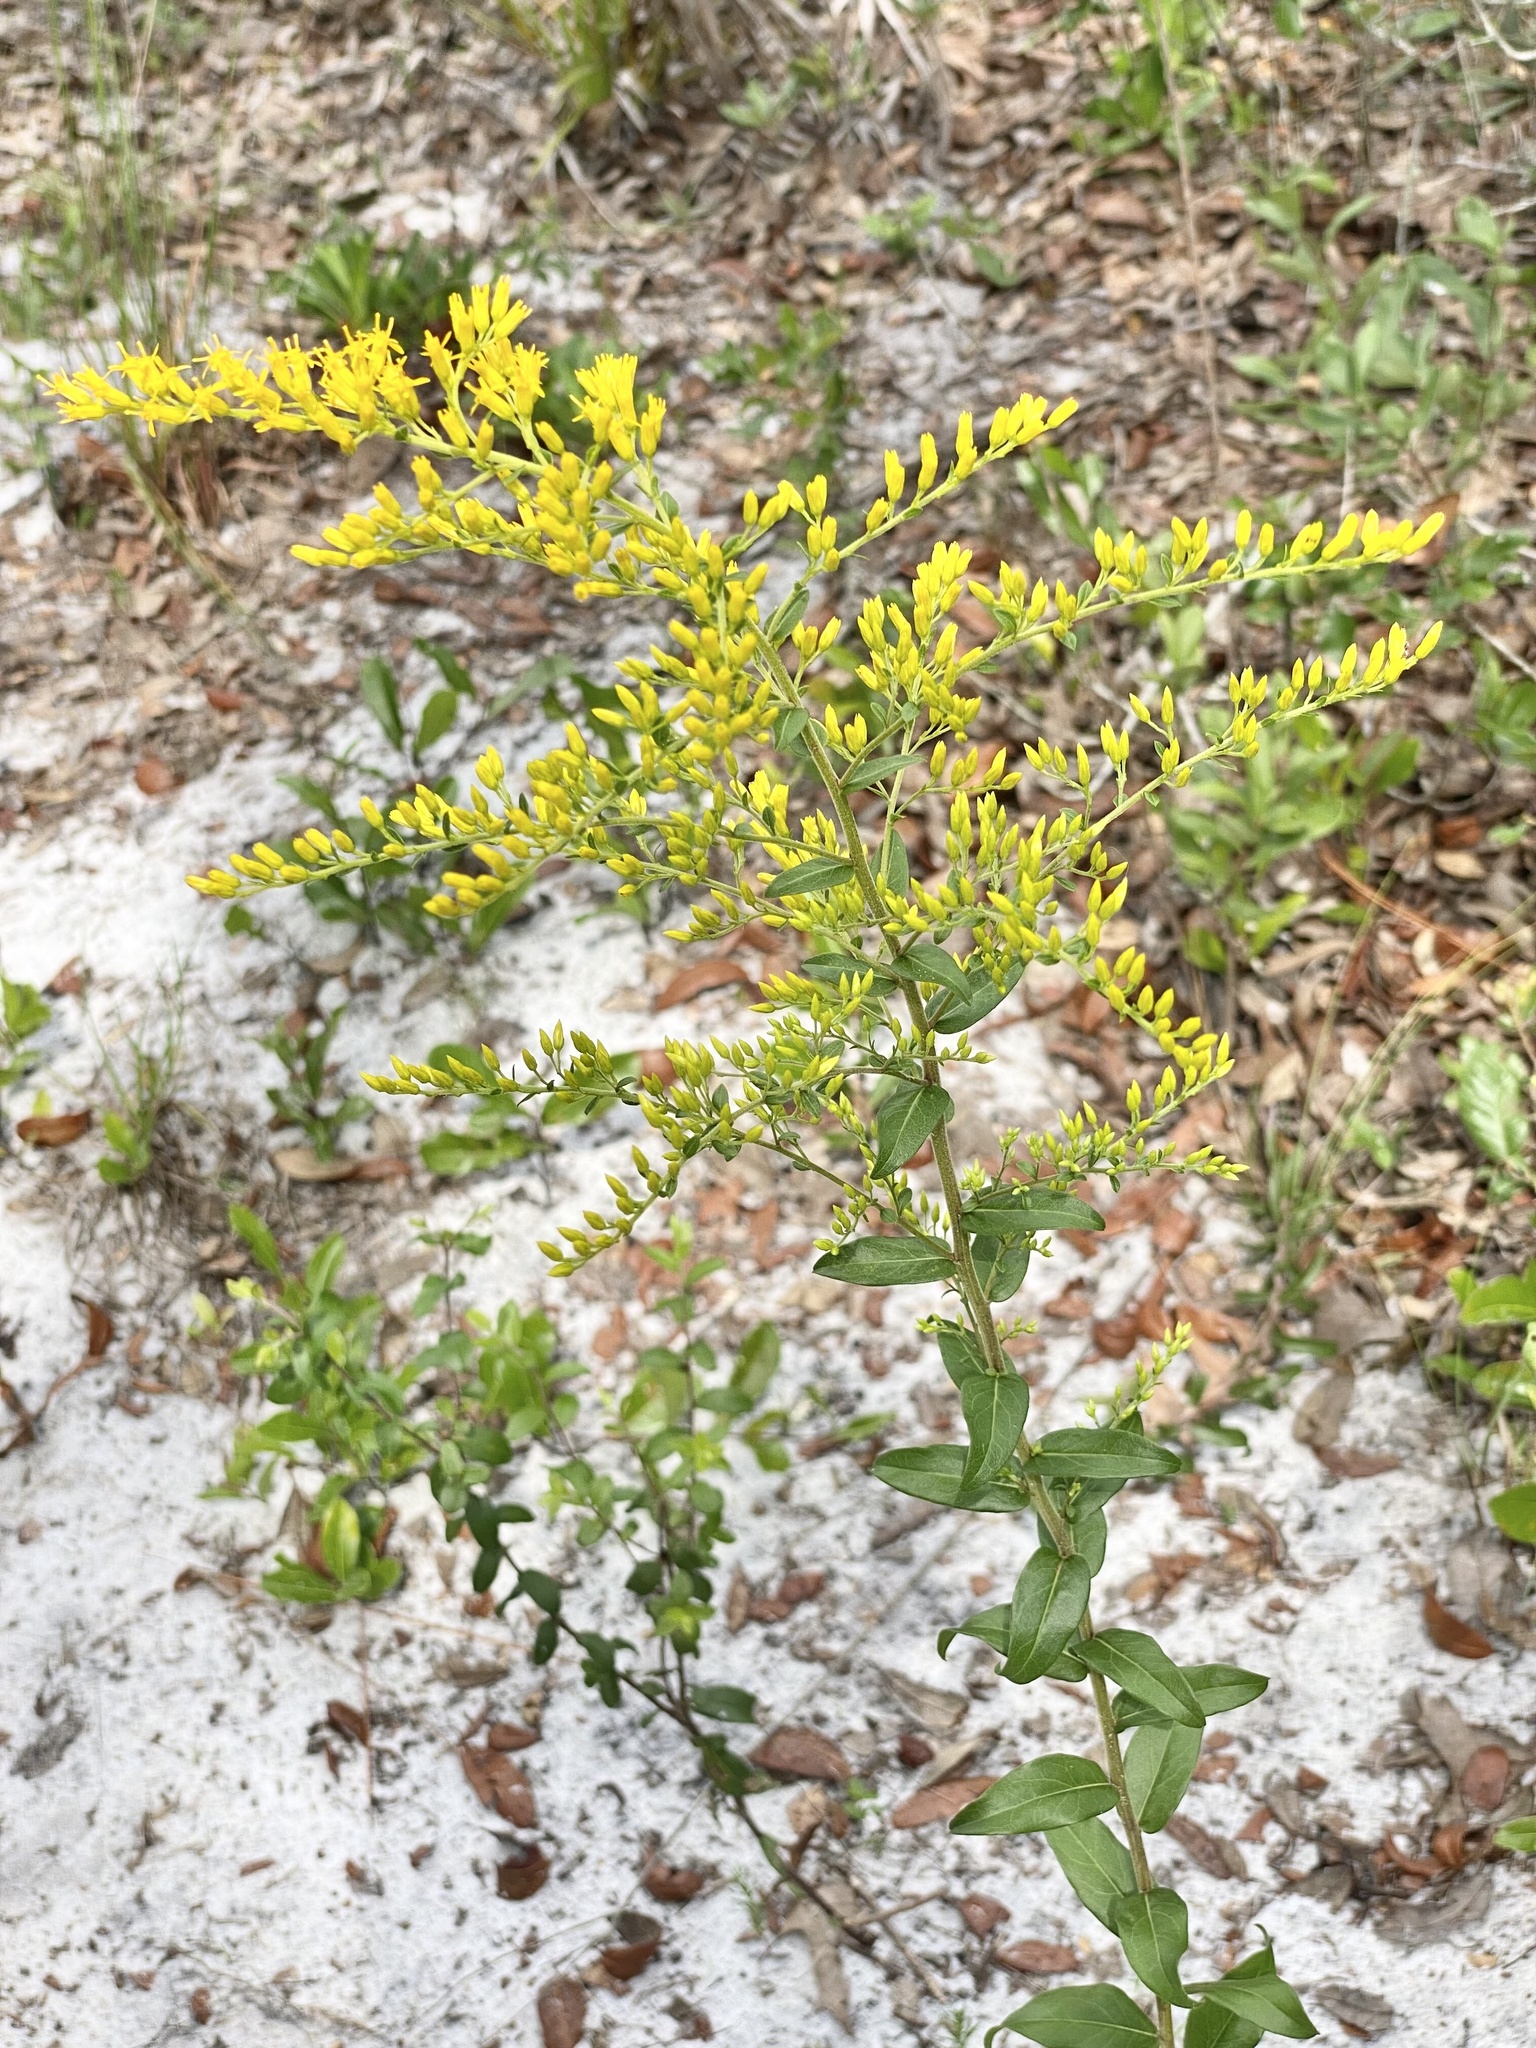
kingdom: Plantae
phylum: Tracheophyta
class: Magnoliopsida
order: Asterales
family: Asteraceae
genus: Solidago
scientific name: Solidago chapmanii
